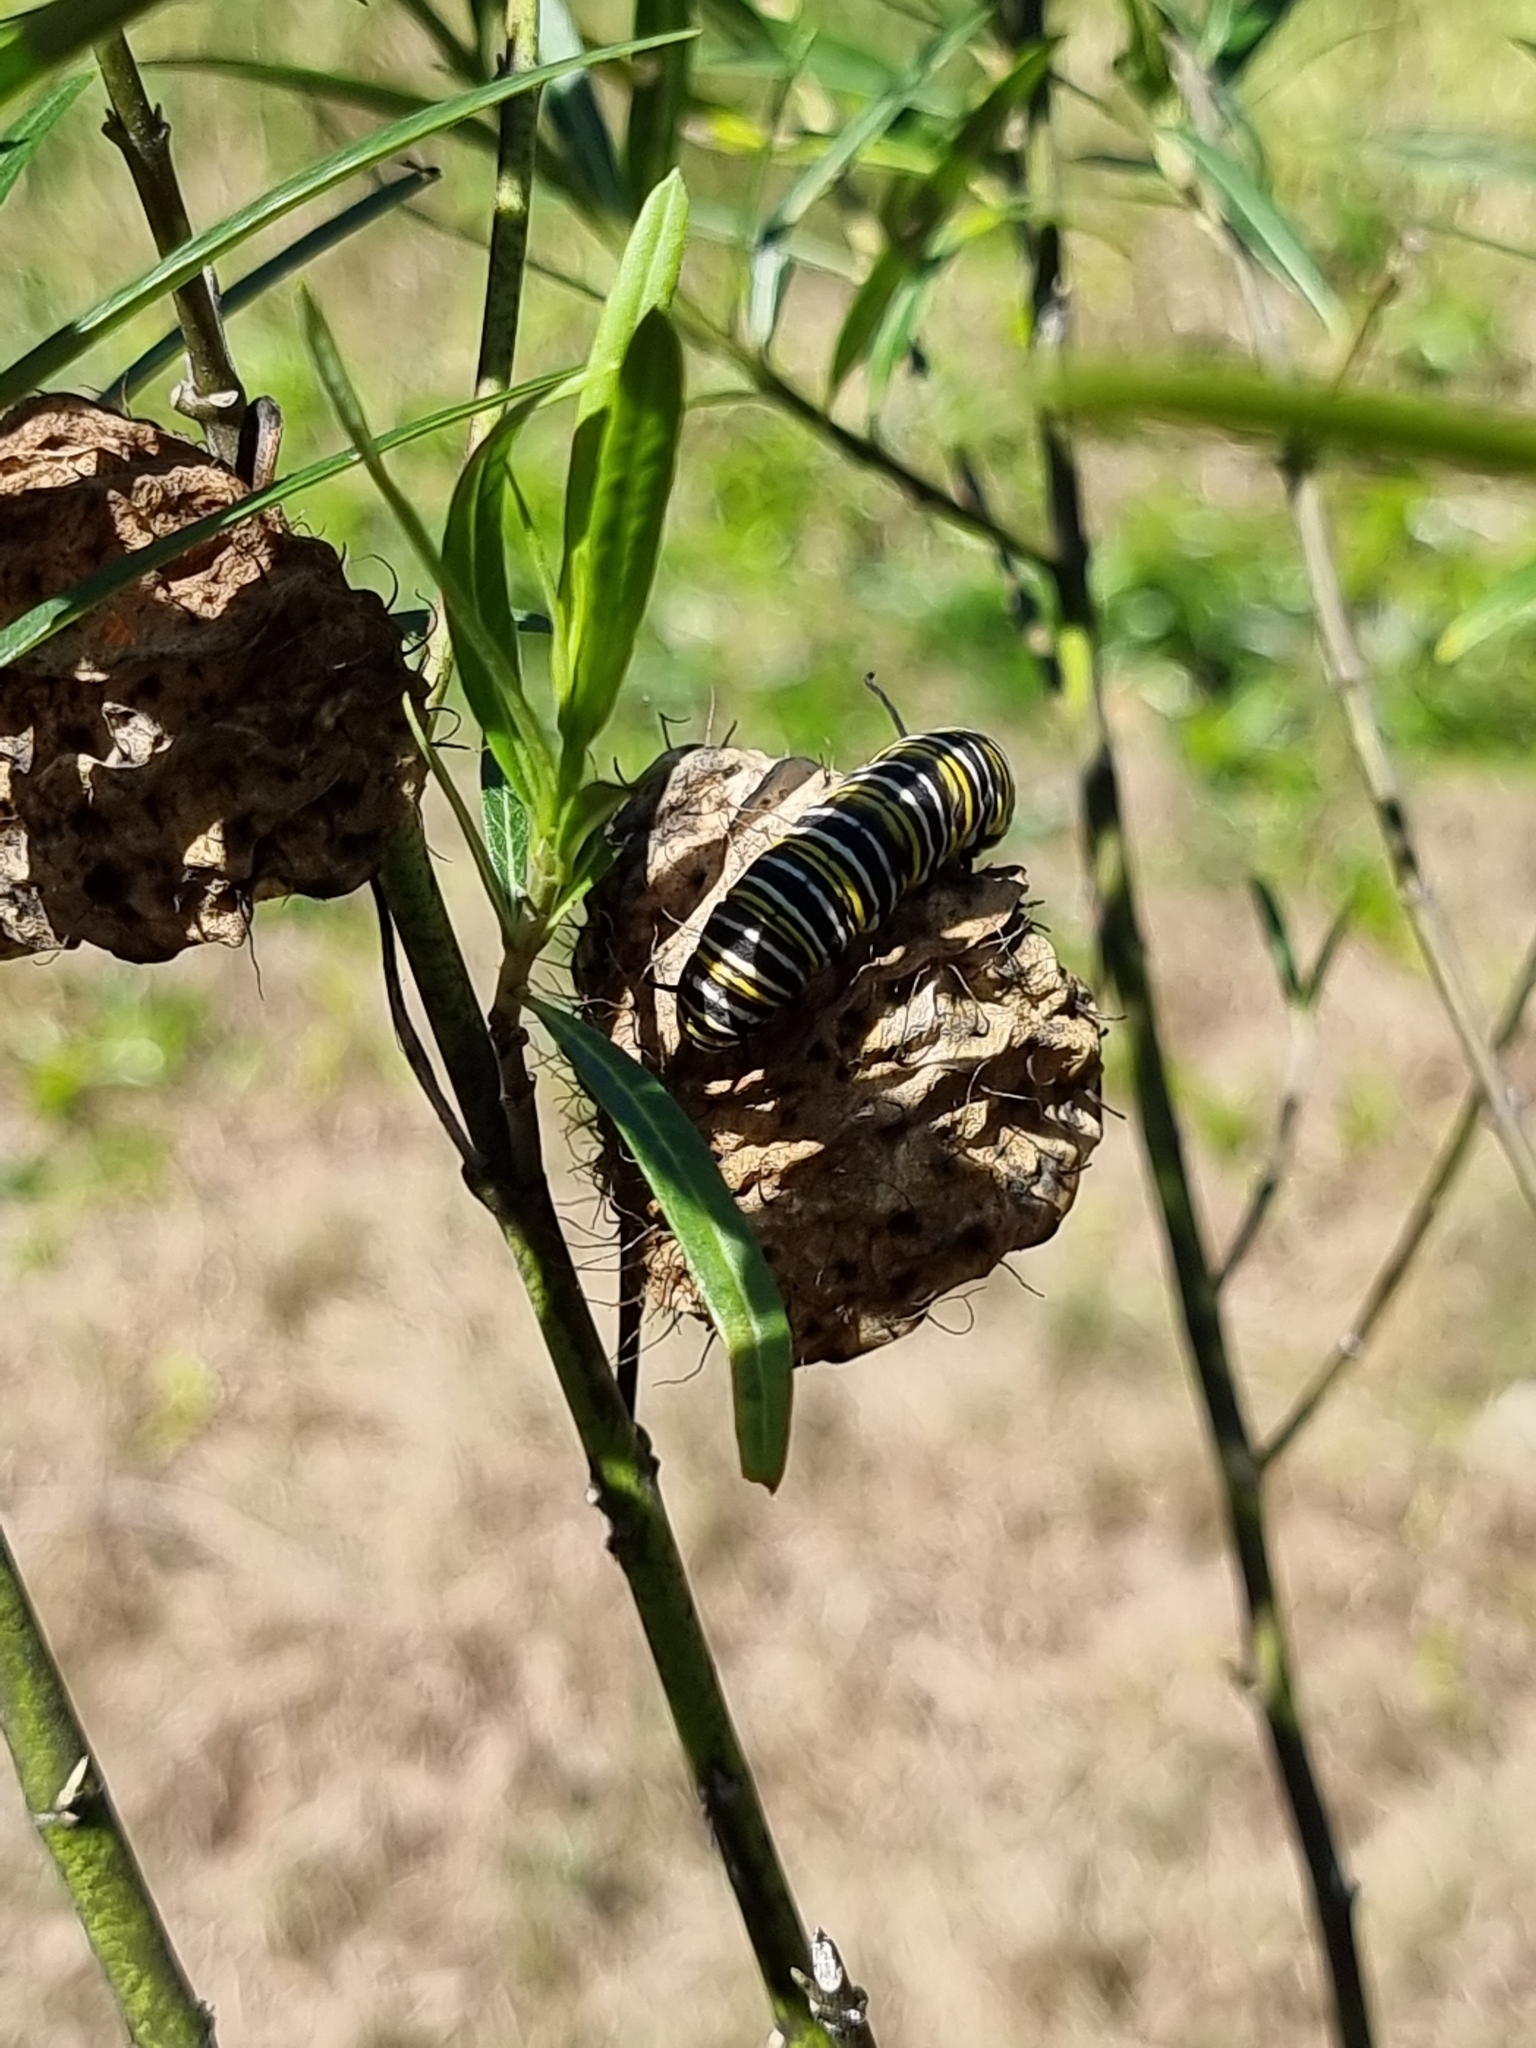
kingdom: Animalia
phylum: Arthropoda
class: Insecta
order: Lepidoptera
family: Nymphalidae
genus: Danaus
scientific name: Danaus plexippus
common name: Monarch
